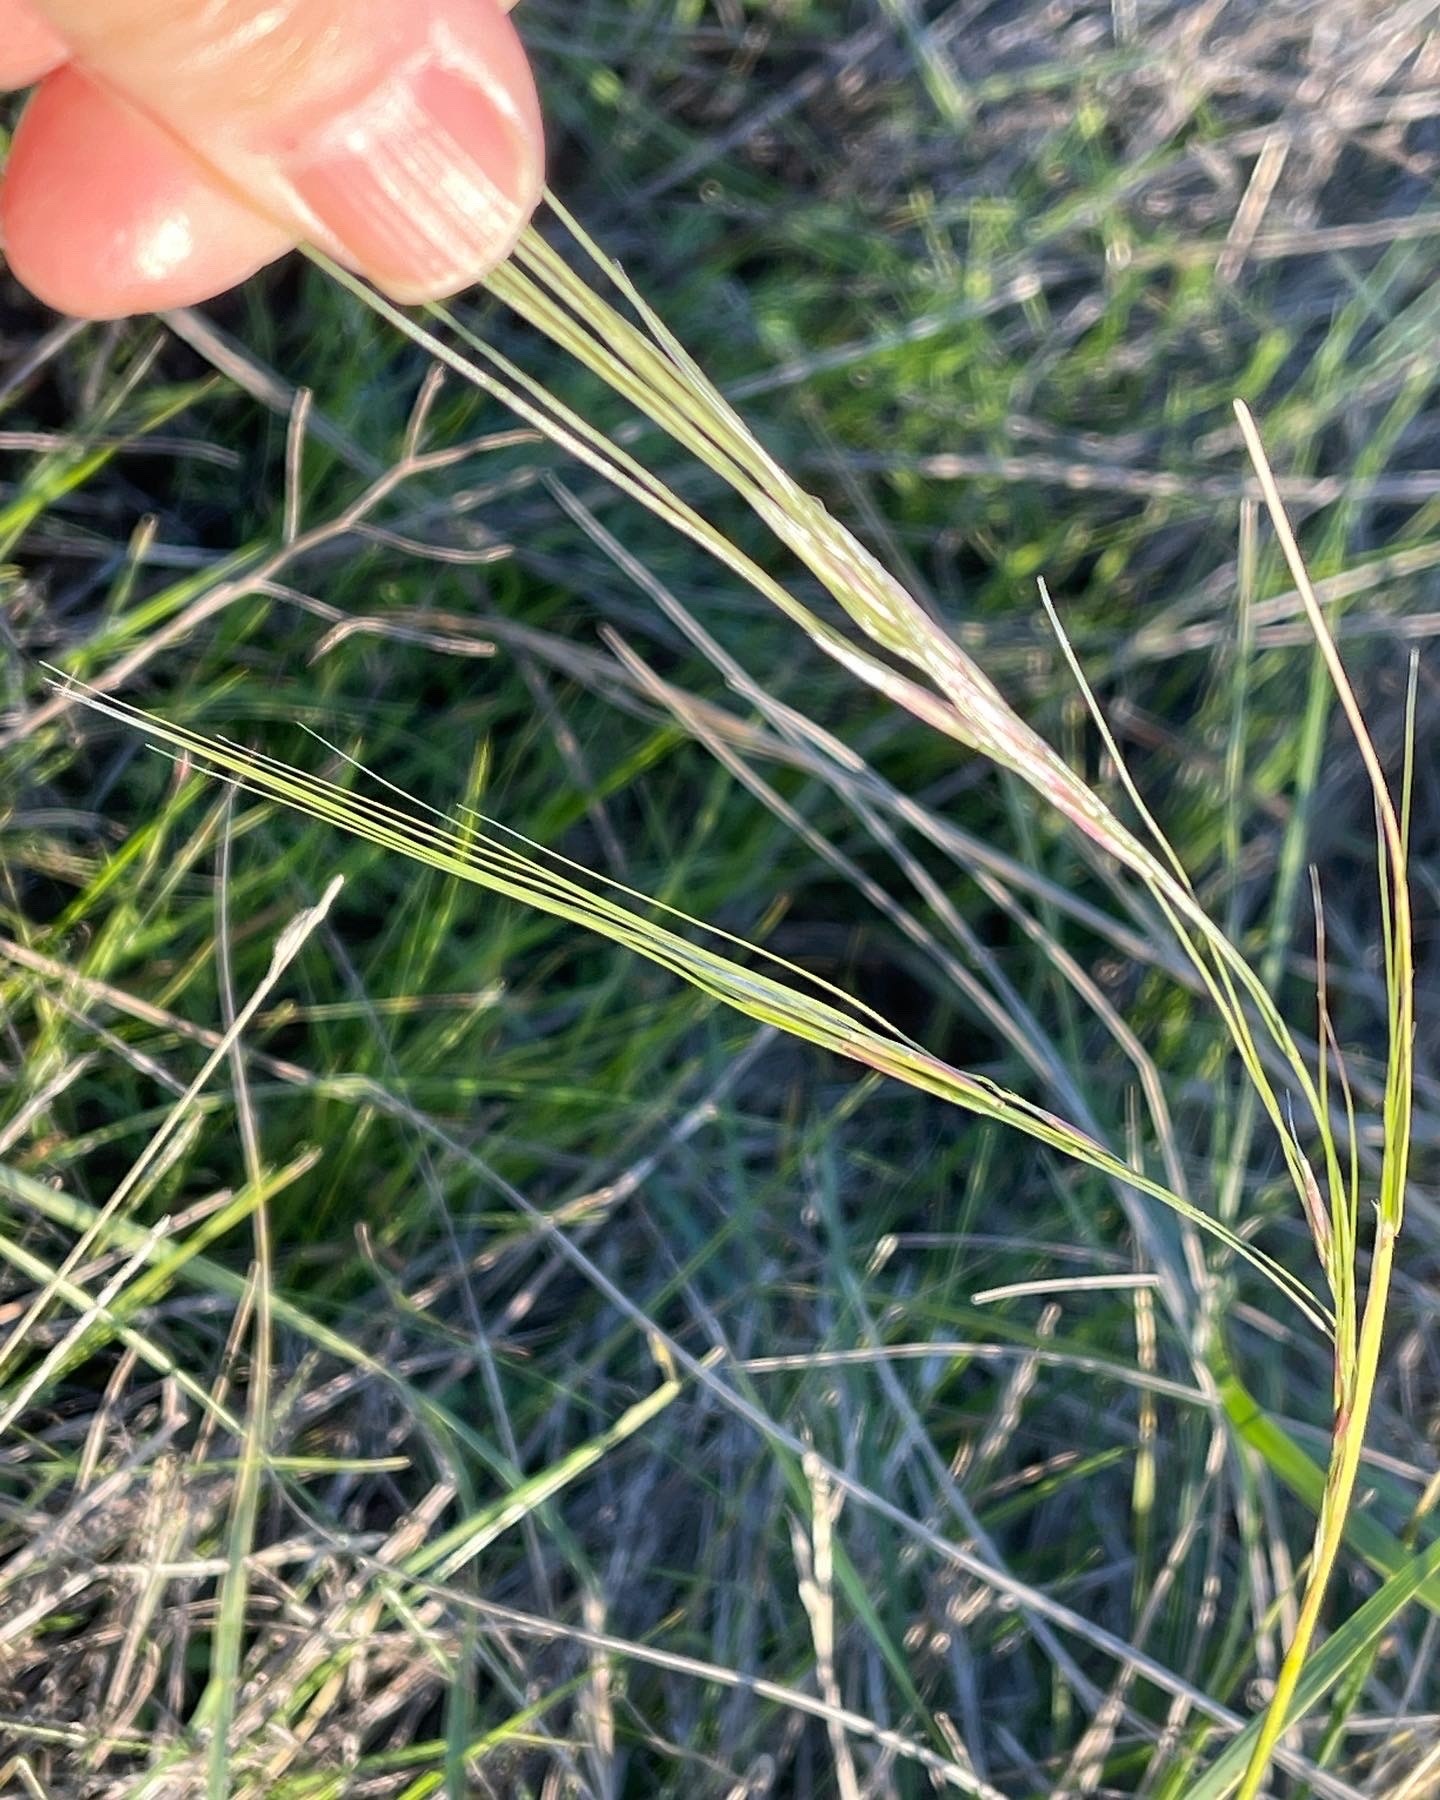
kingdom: Plantae
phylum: Tracheophyta
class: Liliopsida
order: Poales
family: Poaceae
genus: Nassella
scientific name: Nassella pulchra
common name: Purple needlegrass
